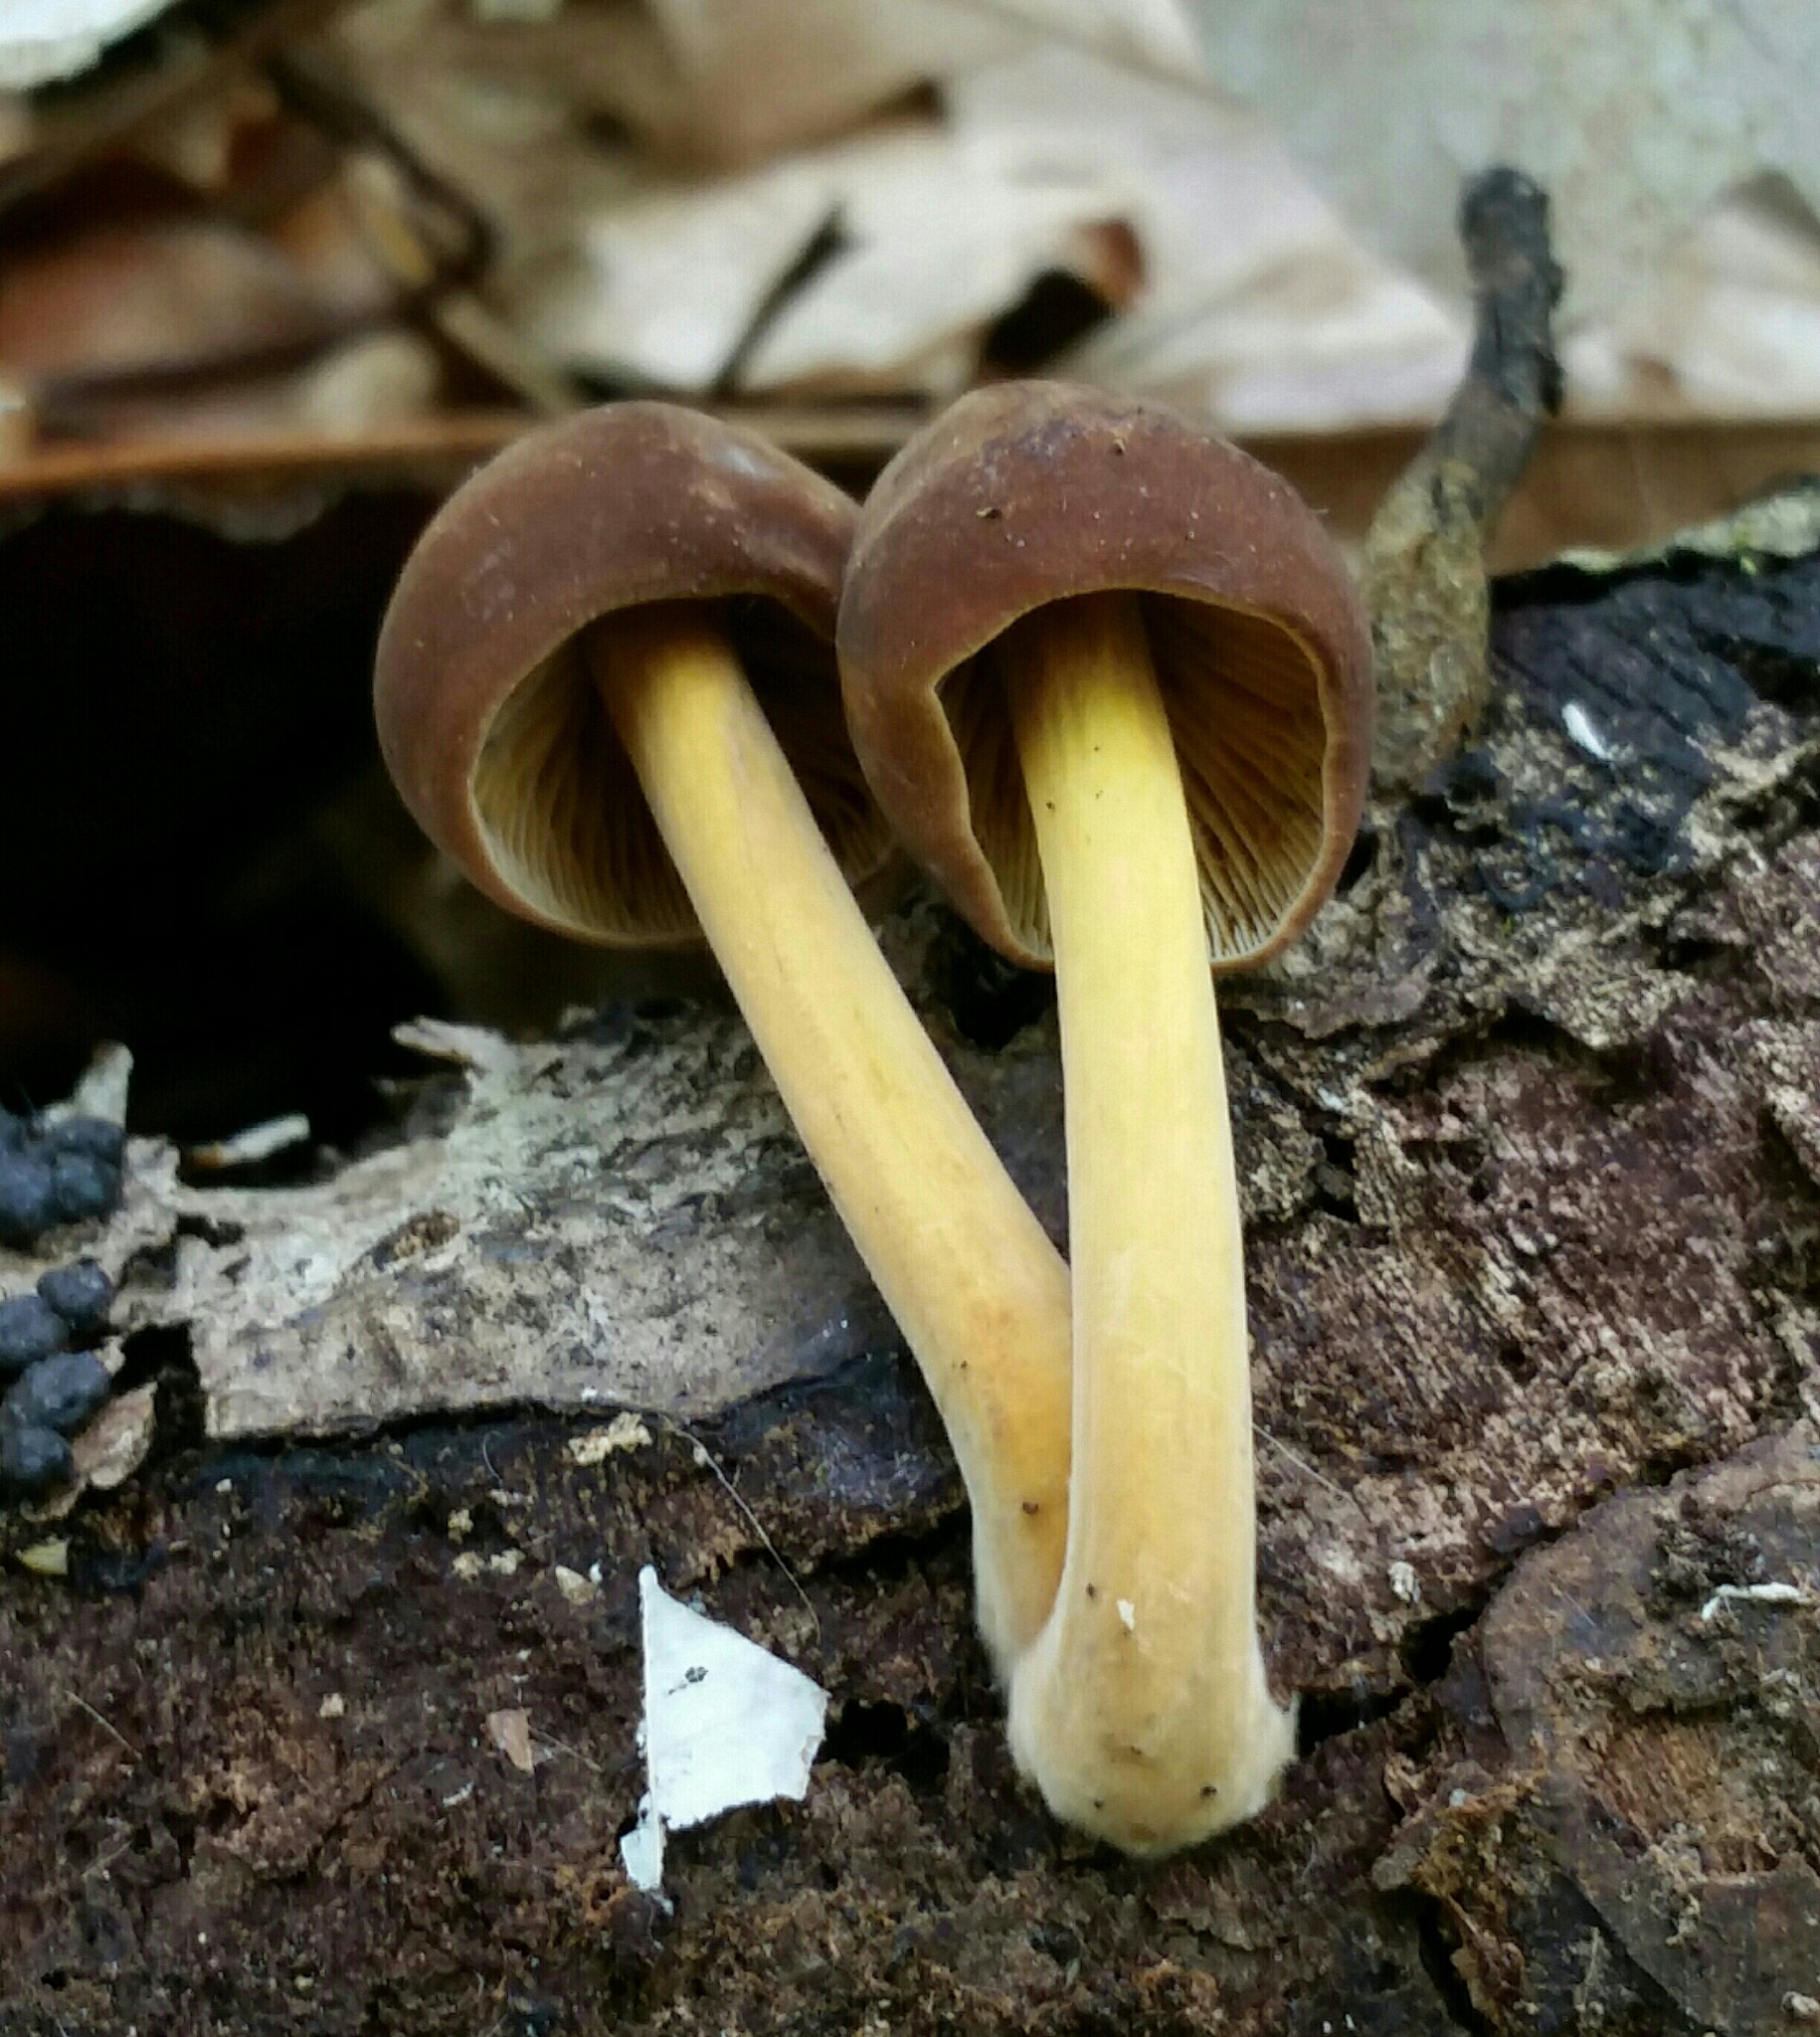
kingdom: Fungi
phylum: Basidiomycota
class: Agaricomycetes
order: Agaricales
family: Pluteaceae
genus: Pluteus
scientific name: Pluteus romellii
